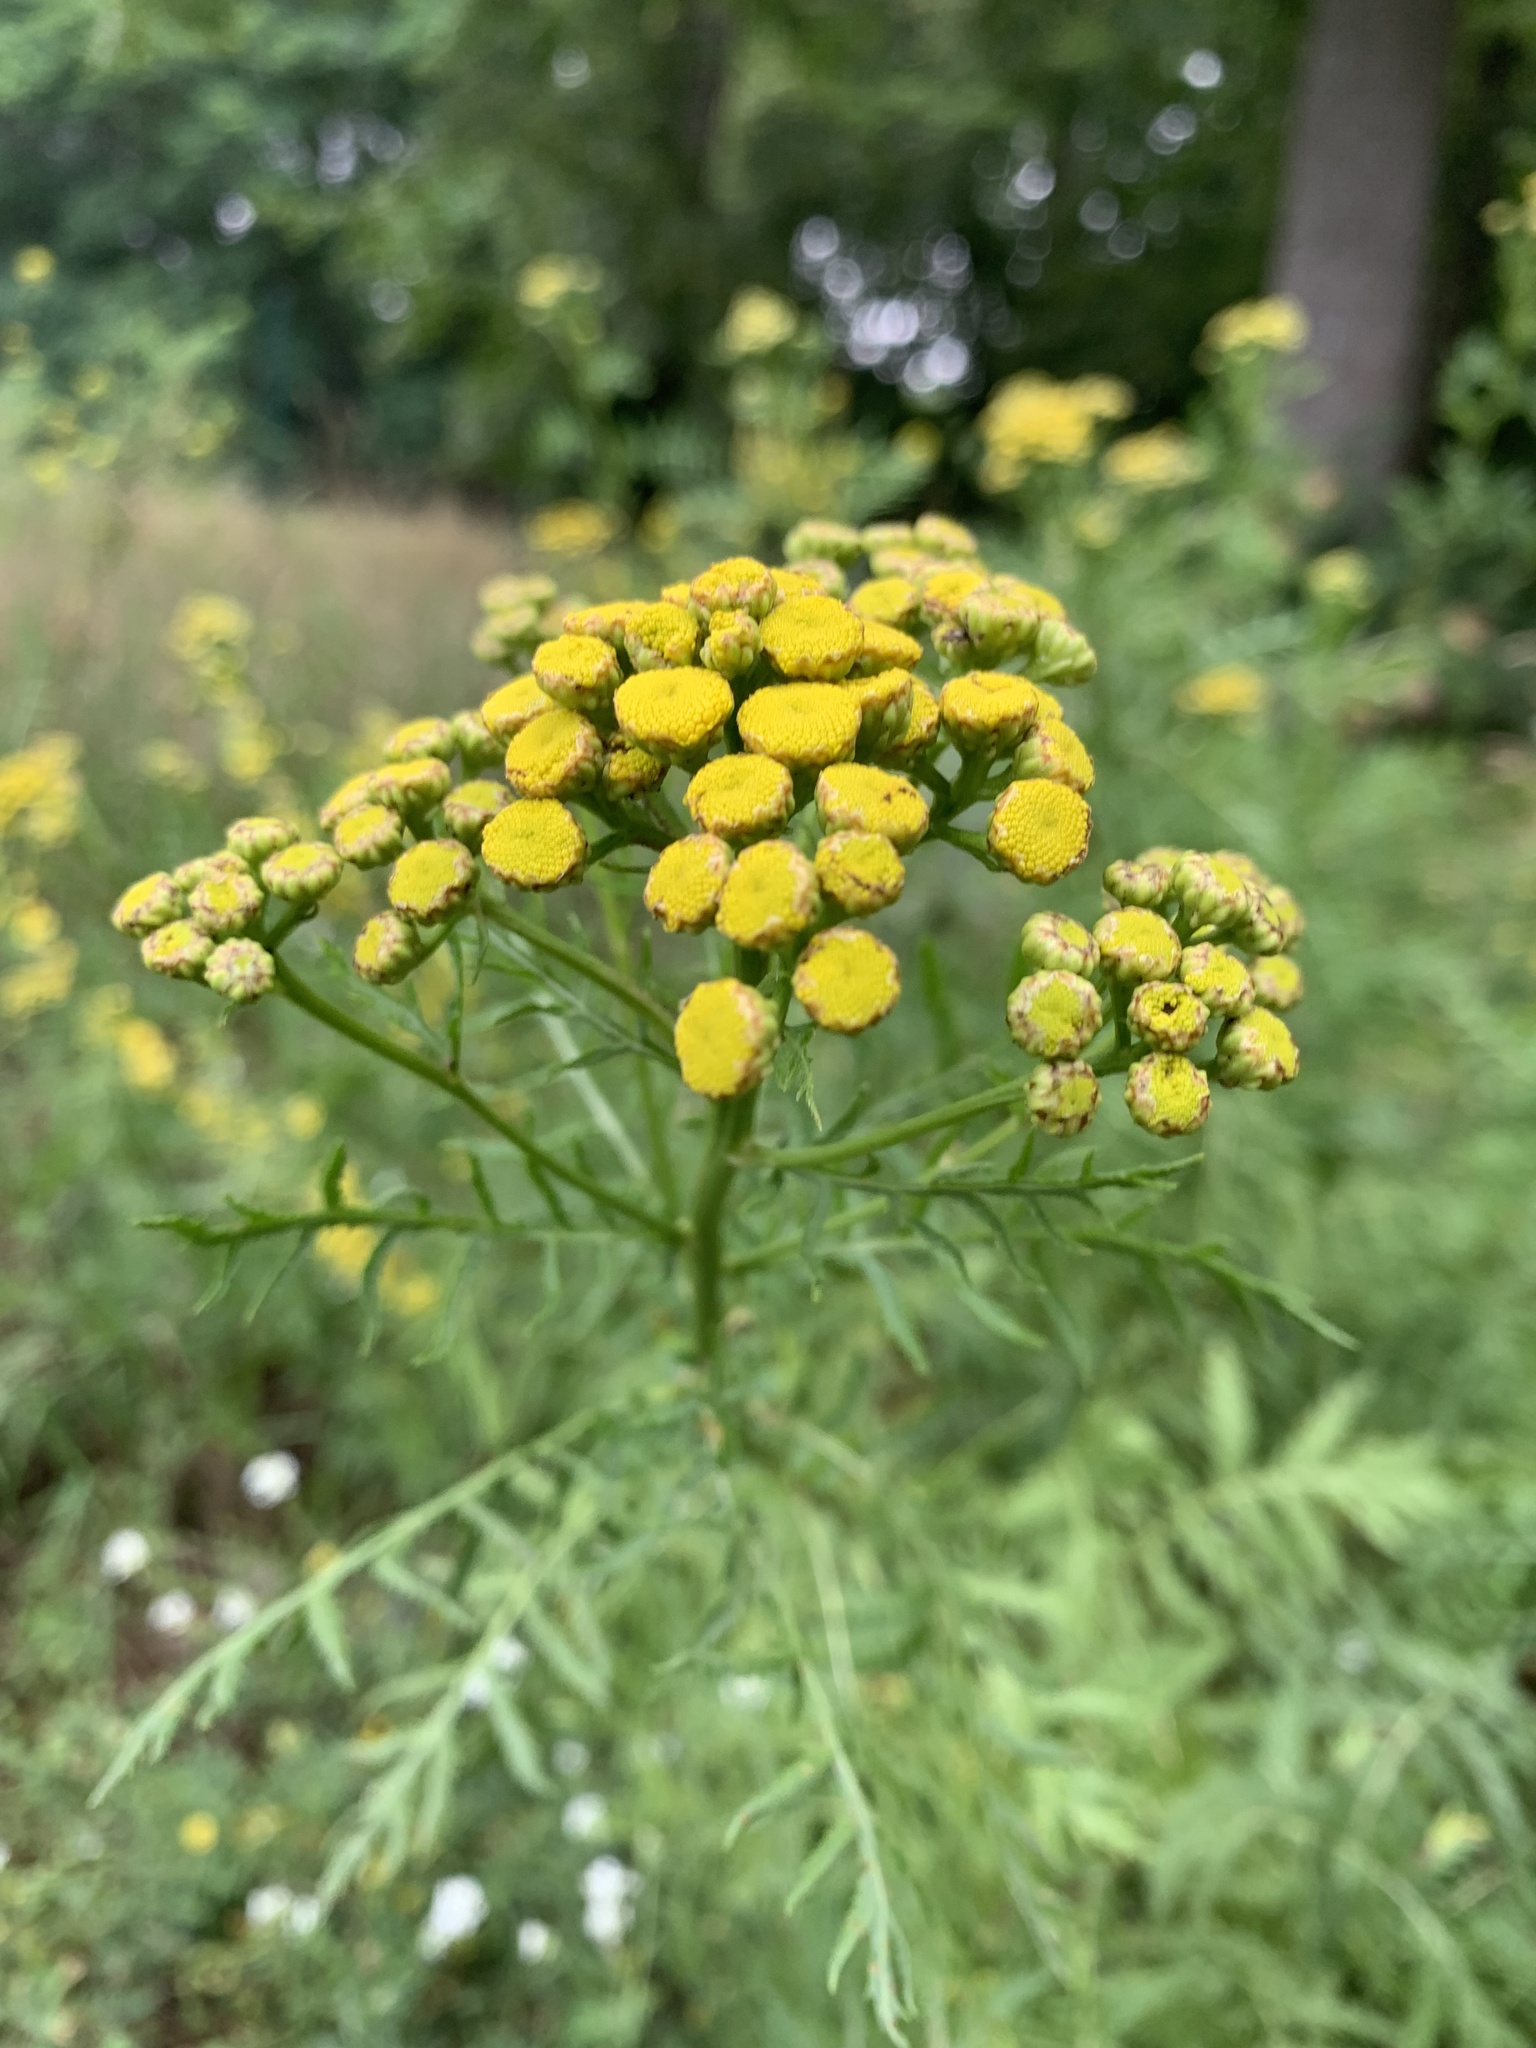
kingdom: Plantae
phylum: Tracheophyta
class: Magnoliopsida
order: Asterales
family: Asteraceae
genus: Tanacetum
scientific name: Tanacetum vulgare
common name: Common tansy
